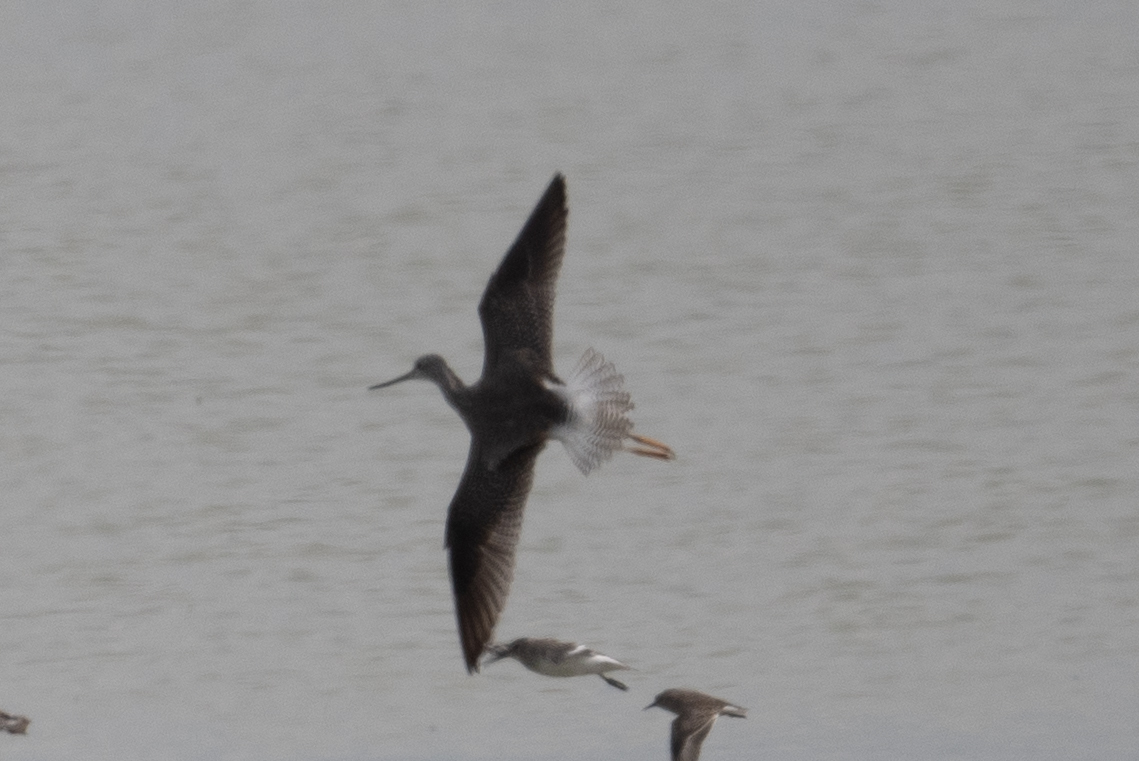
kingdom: Animalia
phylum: Chordata
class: Aves
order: Charadriiformes
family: Scolopacidae
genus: Tringa
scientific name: Tringa melanoleuca
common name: Greater yellowlegs
